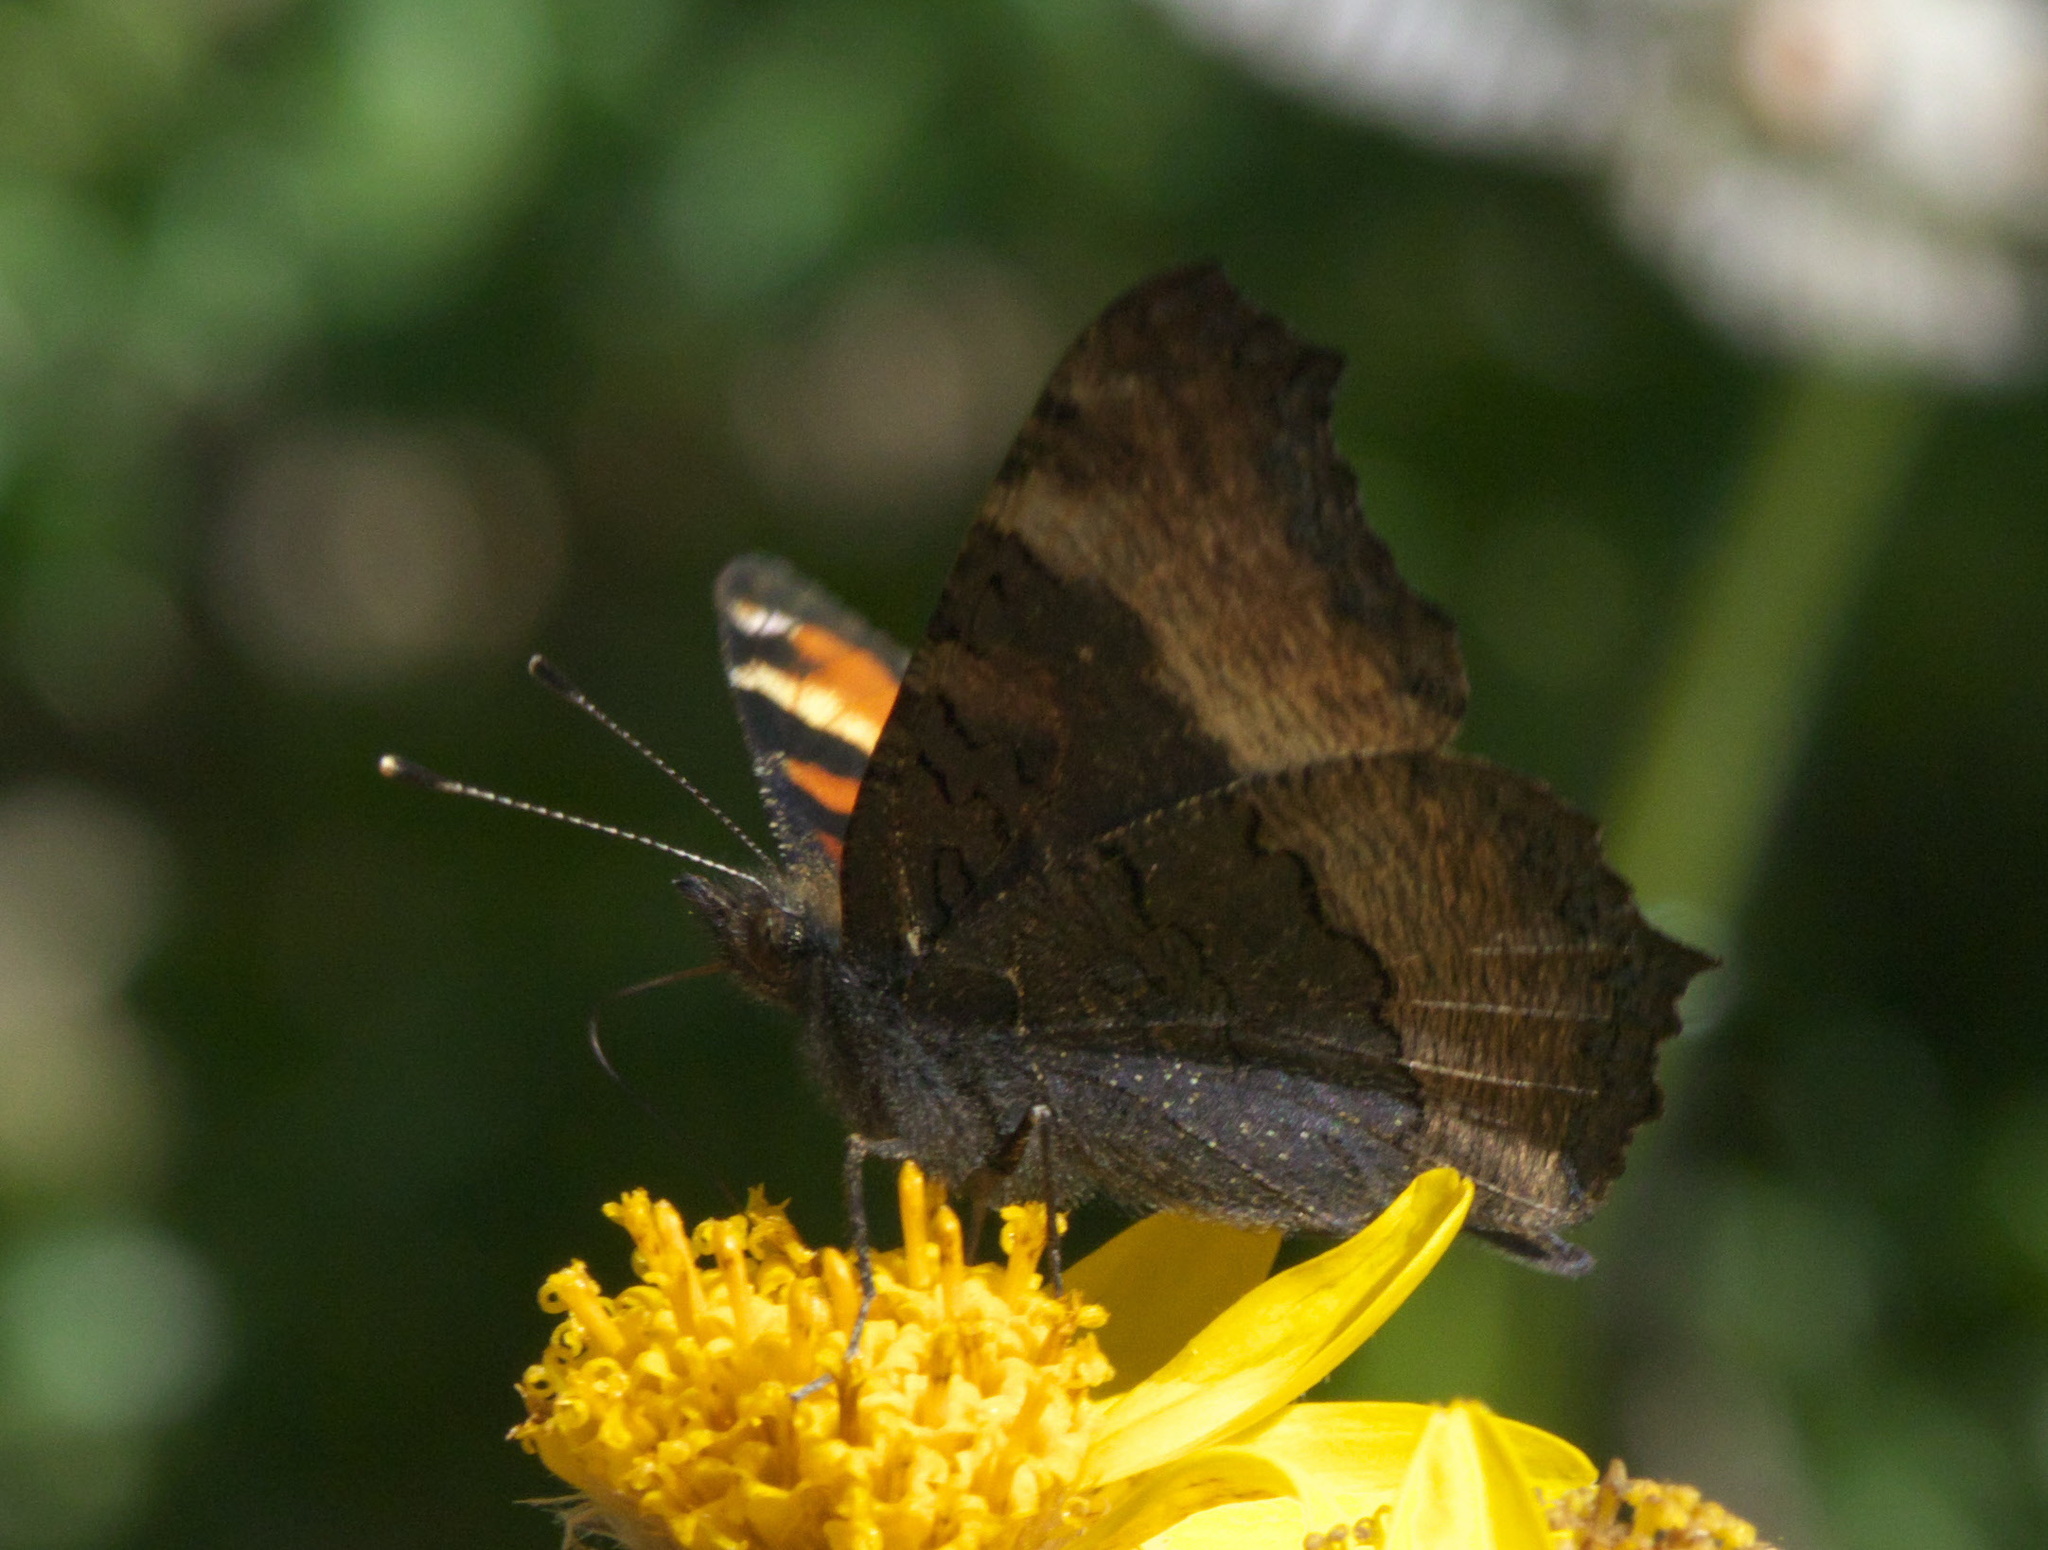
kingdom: Animalia
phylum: Arthropoda
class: Insecta
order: Lepidoptera
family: Nymphalidae
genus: Aglais
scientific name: Aglais milberti
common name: Milbert's tortoiseshell
